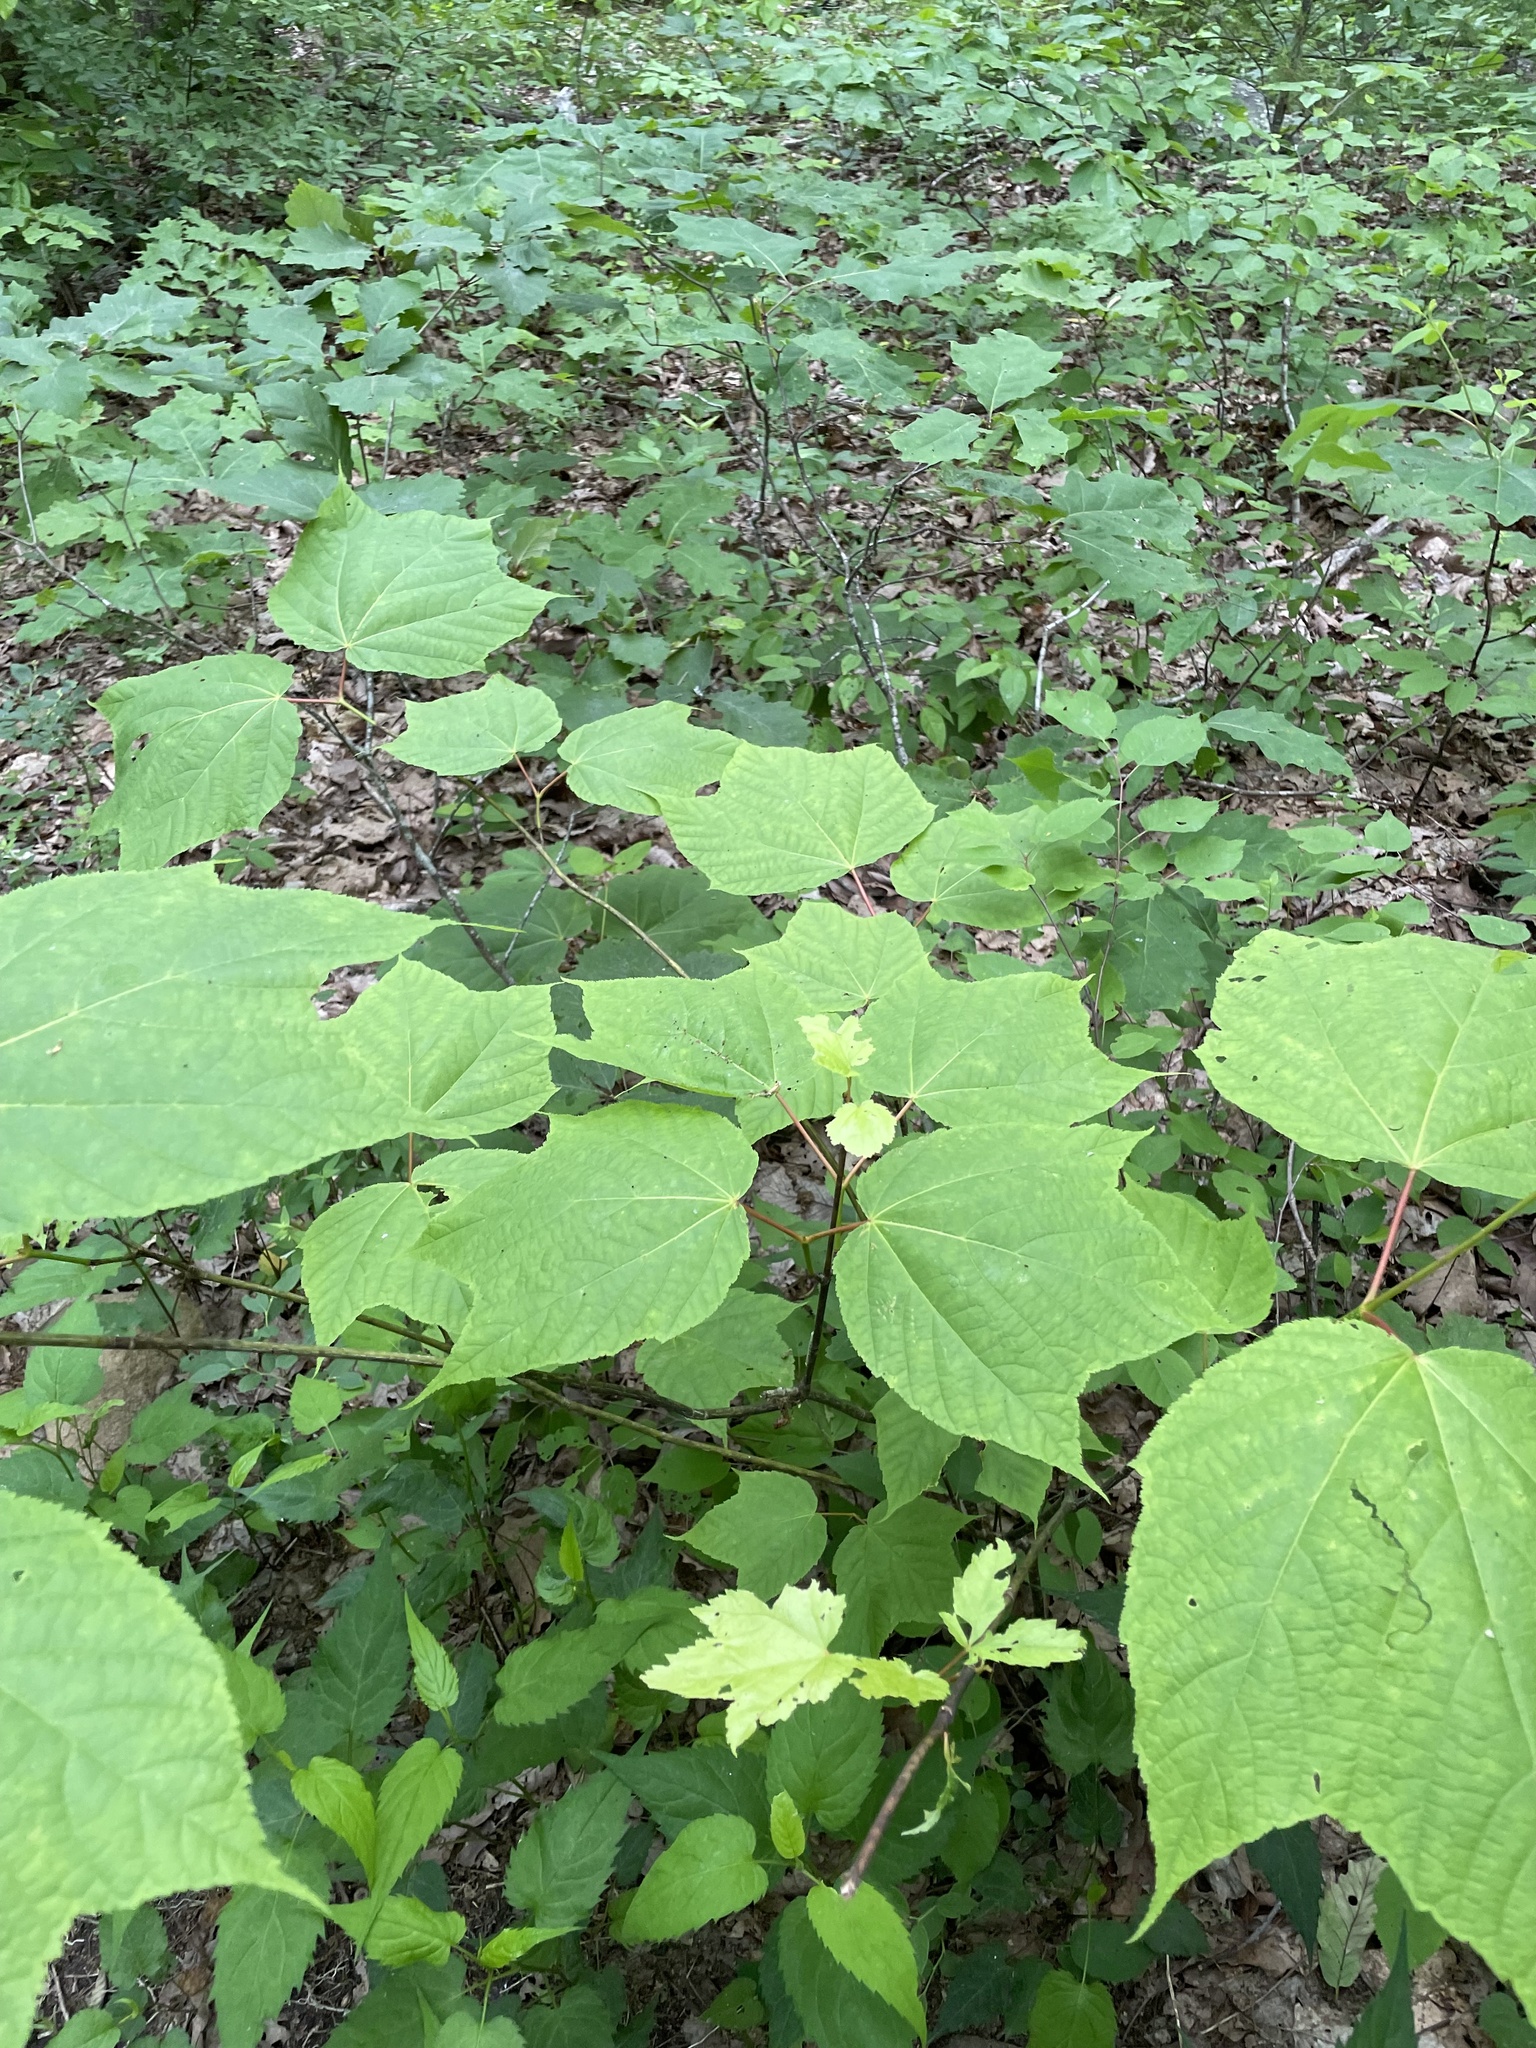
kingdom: Plantae
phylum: Tracheophyta
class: Magnoliopsida
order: Sapindales
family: Sapindaceae
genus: Acer
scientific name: Acer pensylvanicum
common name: Moosewood
